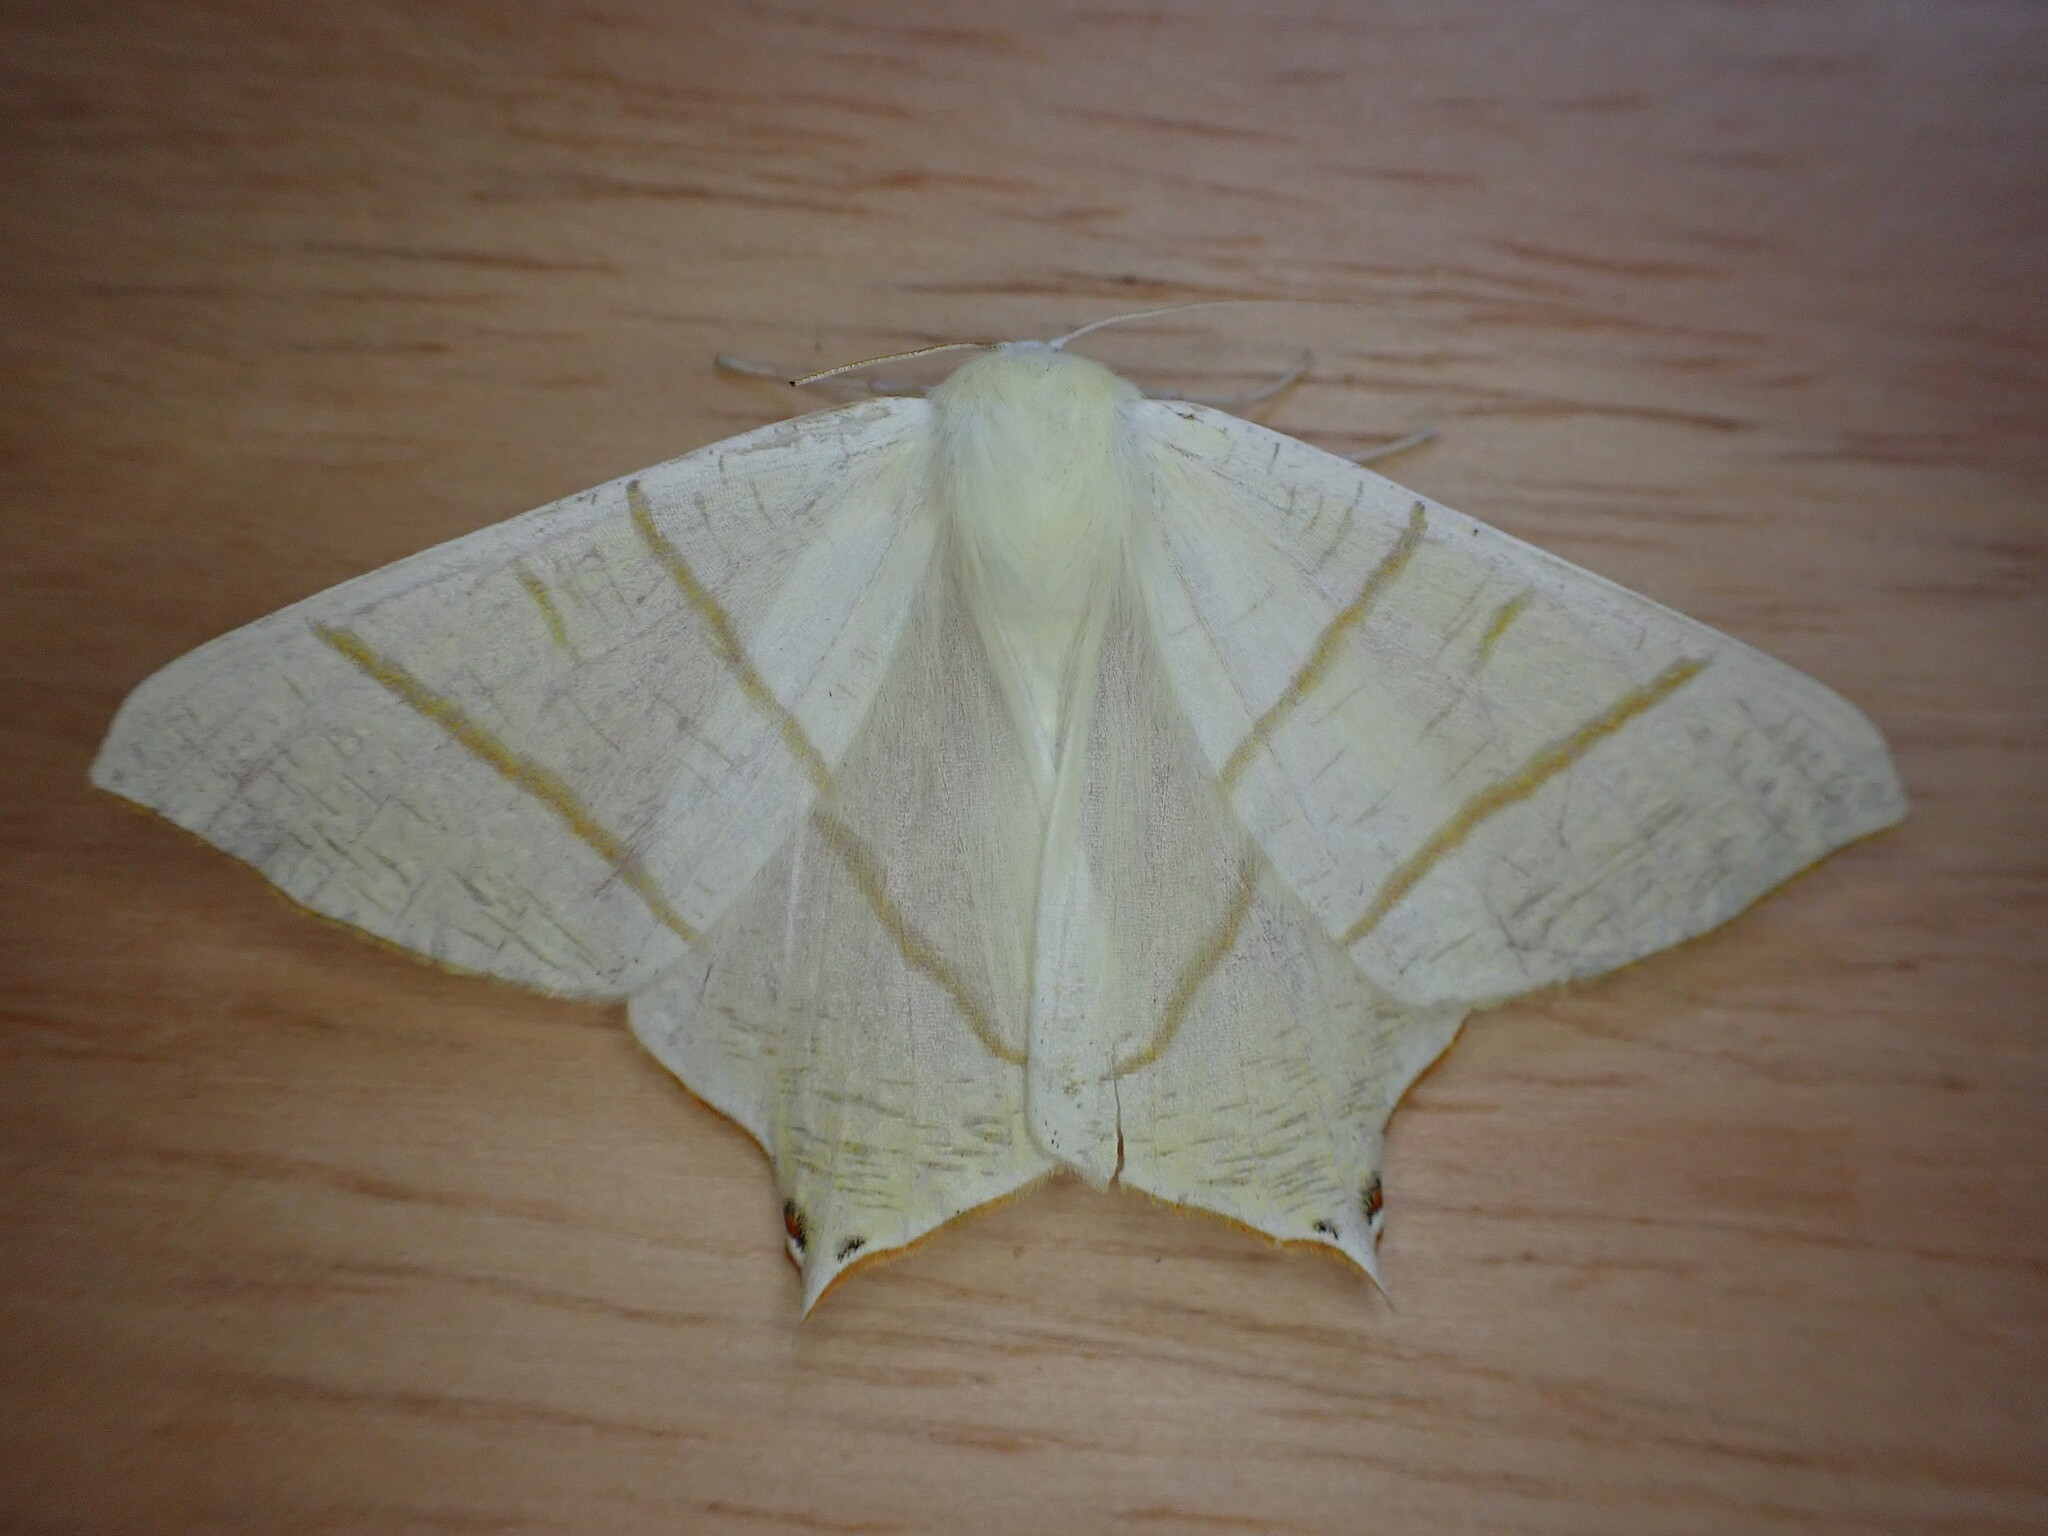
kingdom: Animalia
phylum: Arthropoda
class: Insecta
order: Lepidoptera
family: Geometridae
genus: Ourapteryx
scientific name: Ourapteryx sambucaria
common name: Swallow-tailed moth
